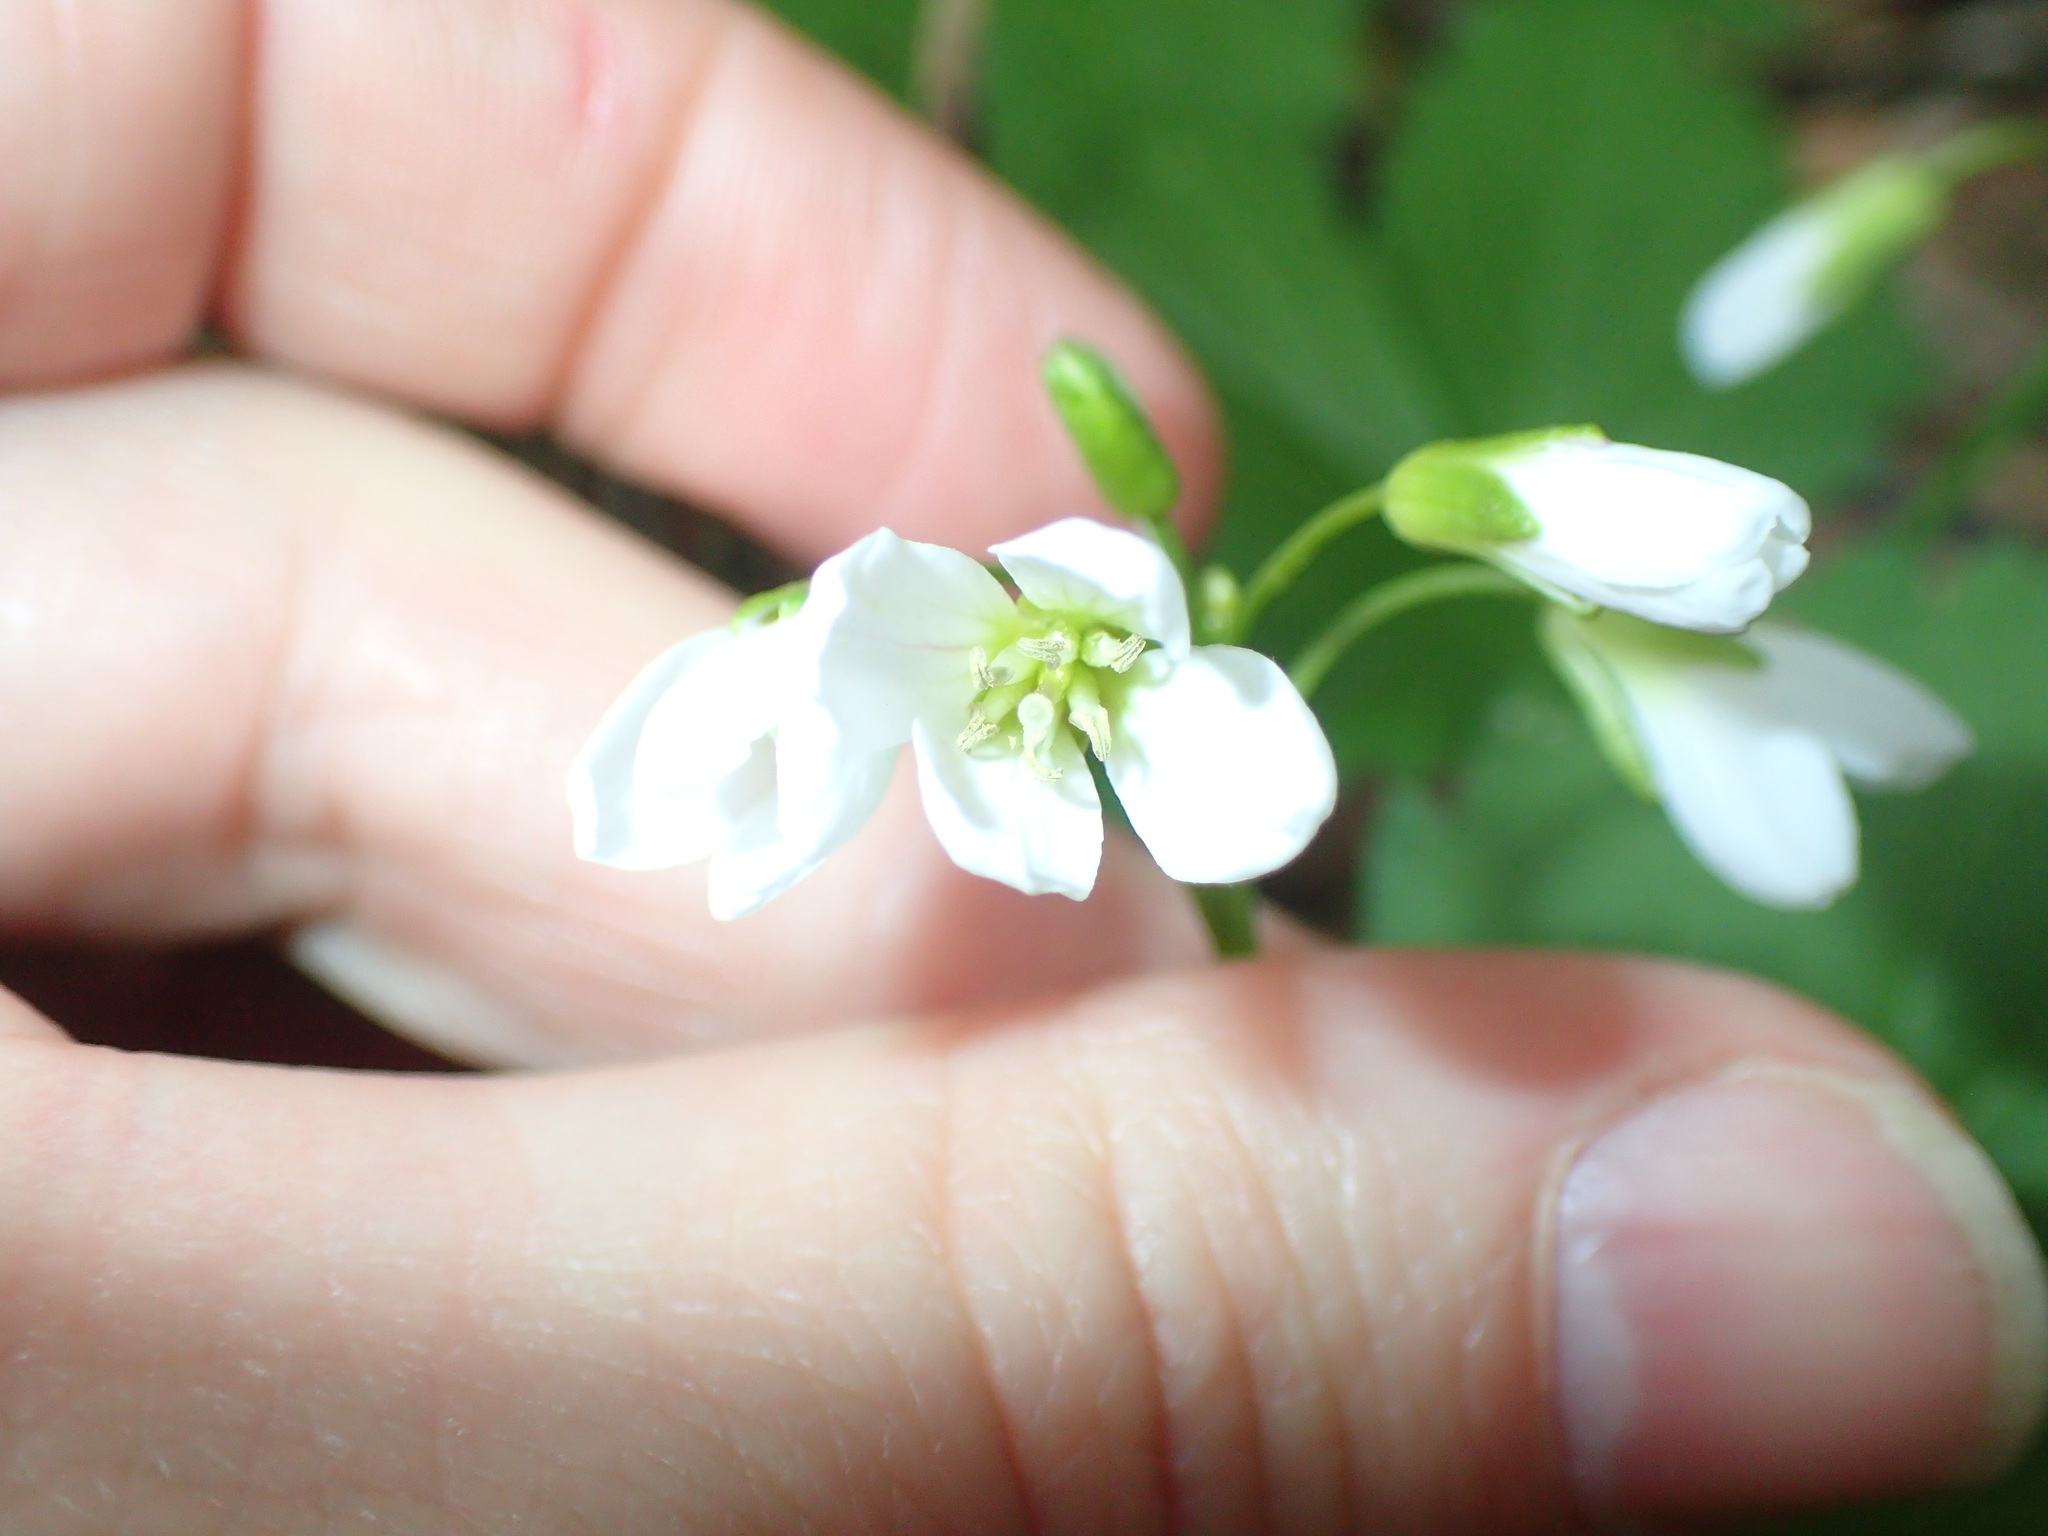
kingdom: Plantae
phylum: Tracheophyta
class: Magnoliopsida
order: Brassicales
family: Brassicaceae
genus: Cardamine
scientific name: Cardamine diphylla
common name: Broad-leaved toothwort
